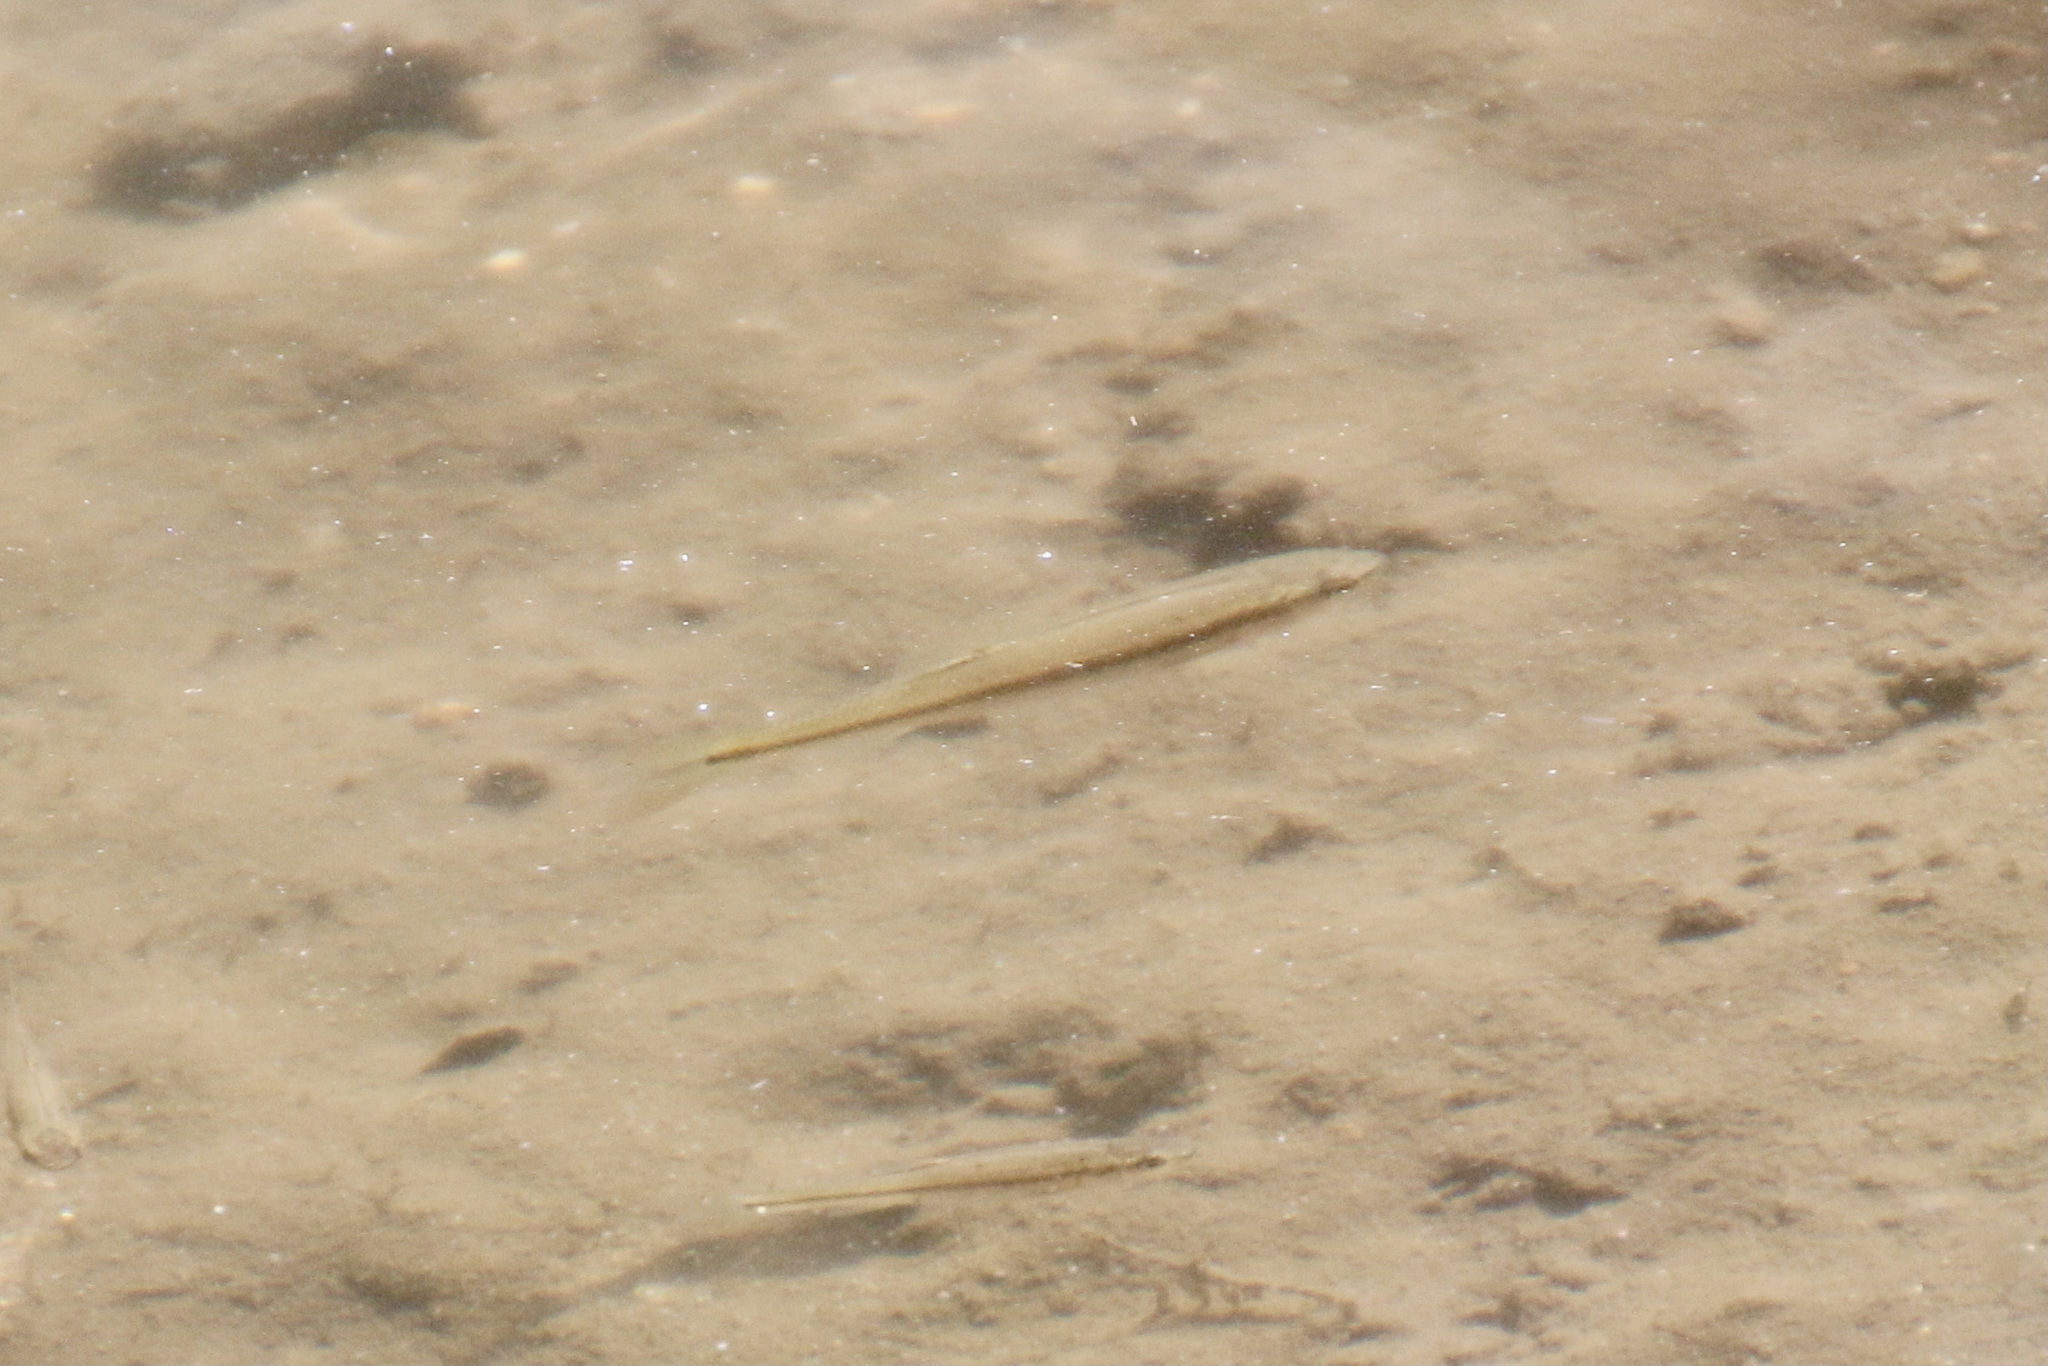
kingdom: Animalia
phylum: Chordata
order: Cypriniformes
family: Cyprinidae
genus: Semotilus
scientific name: Semotilus atromaculatus
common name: Creek chub
